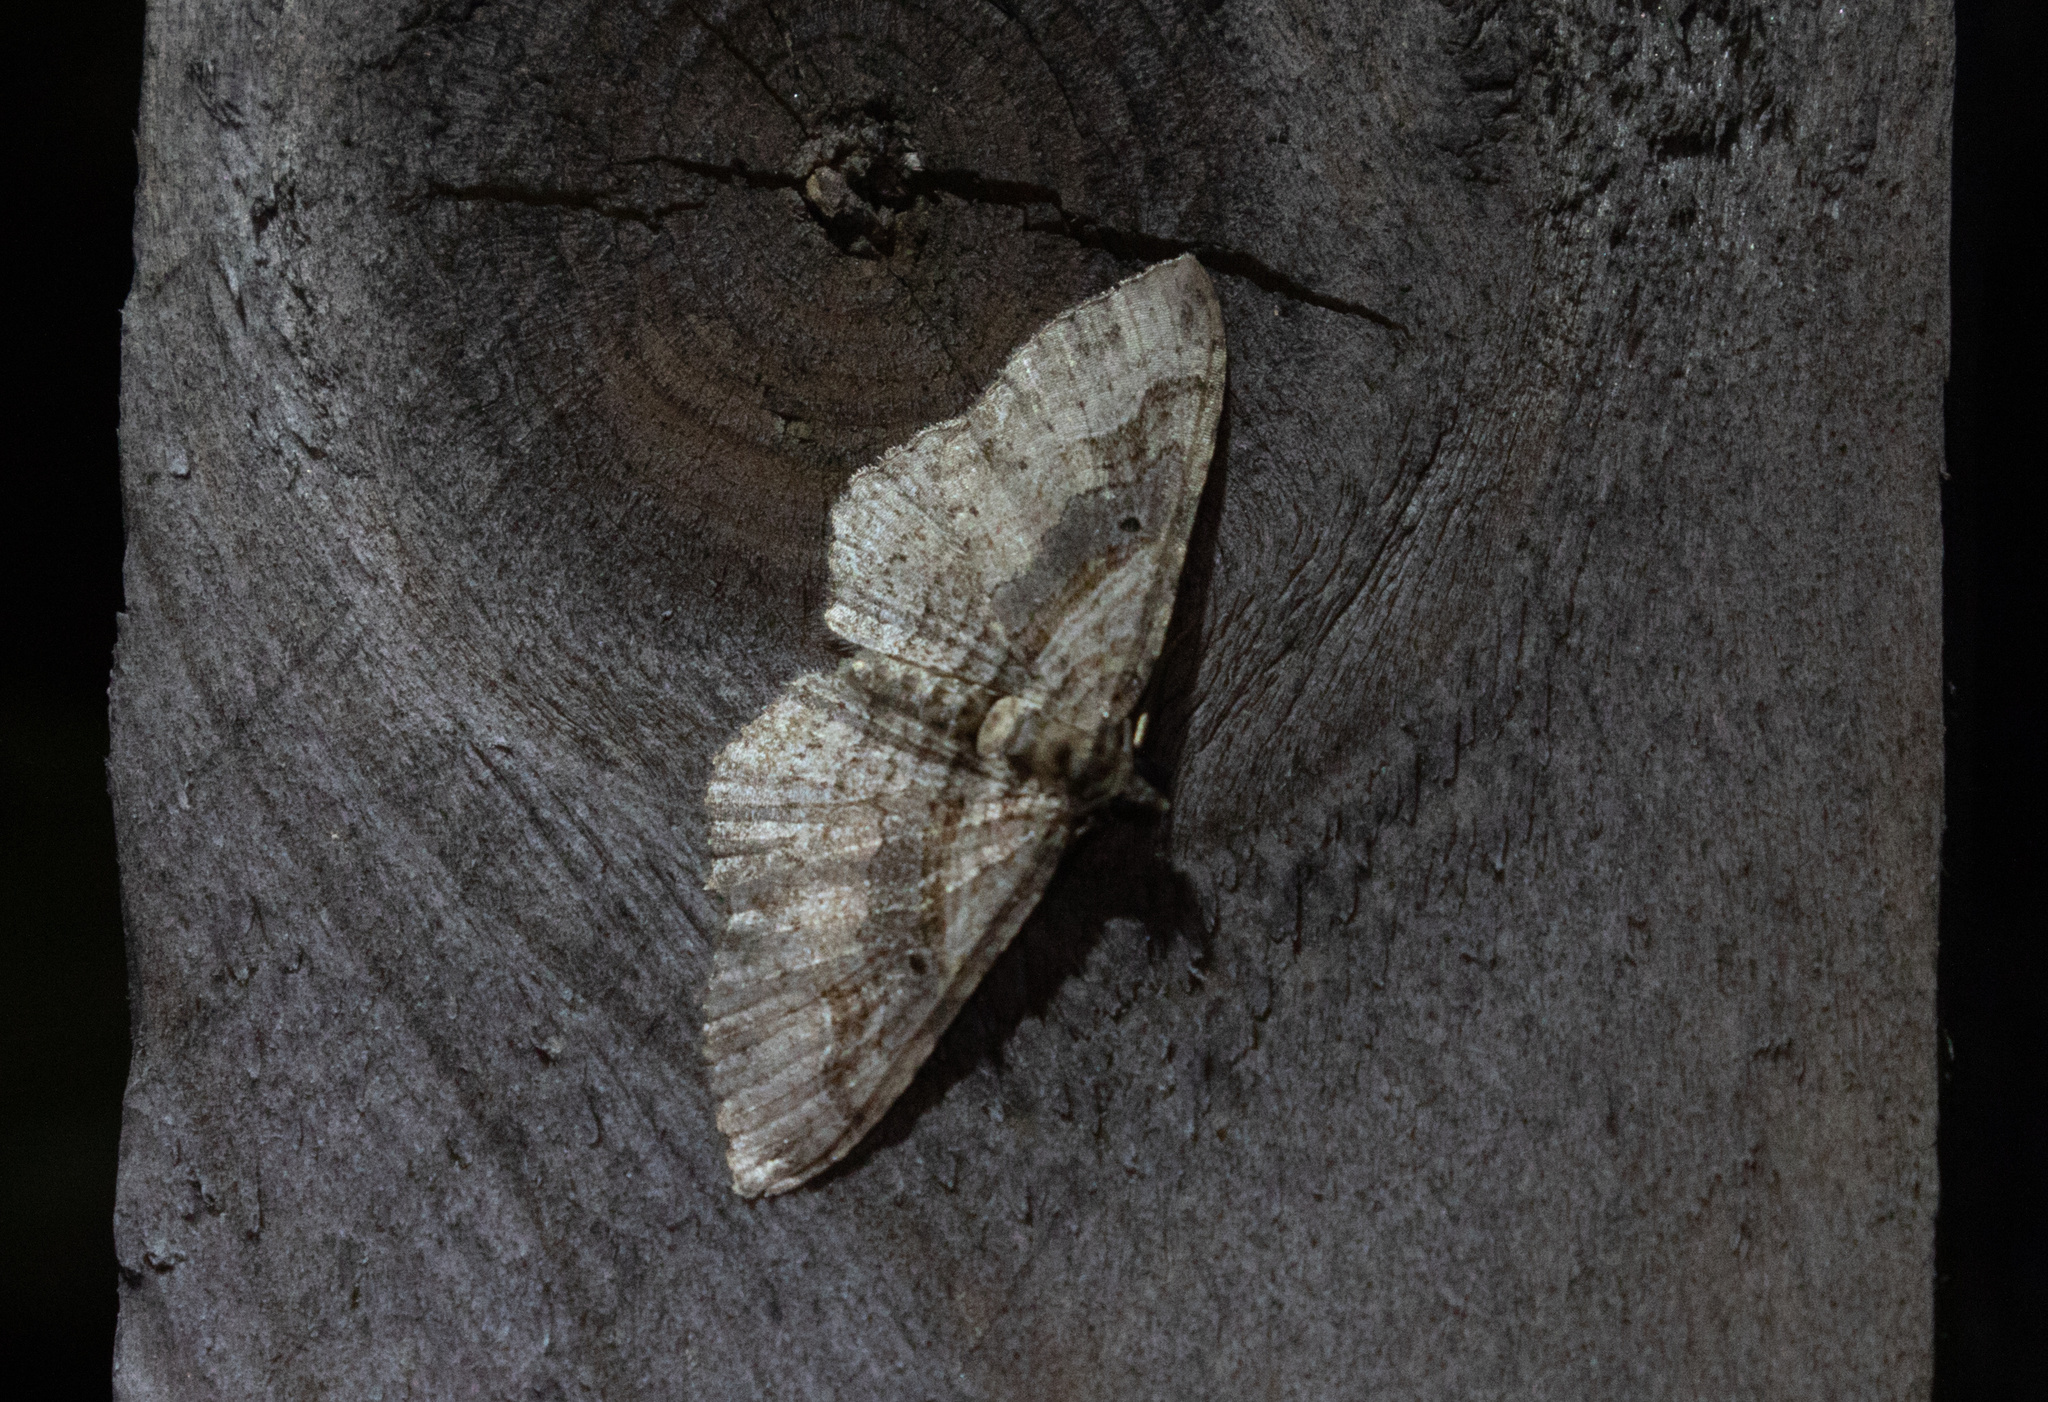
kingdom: Animalia
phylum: Arthropoda
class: Insecta
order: Lepidoptera
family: Geometridae
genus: Costaconvexa
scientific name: Costaconvexa centrostrigaria
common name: Bent-line carpet
